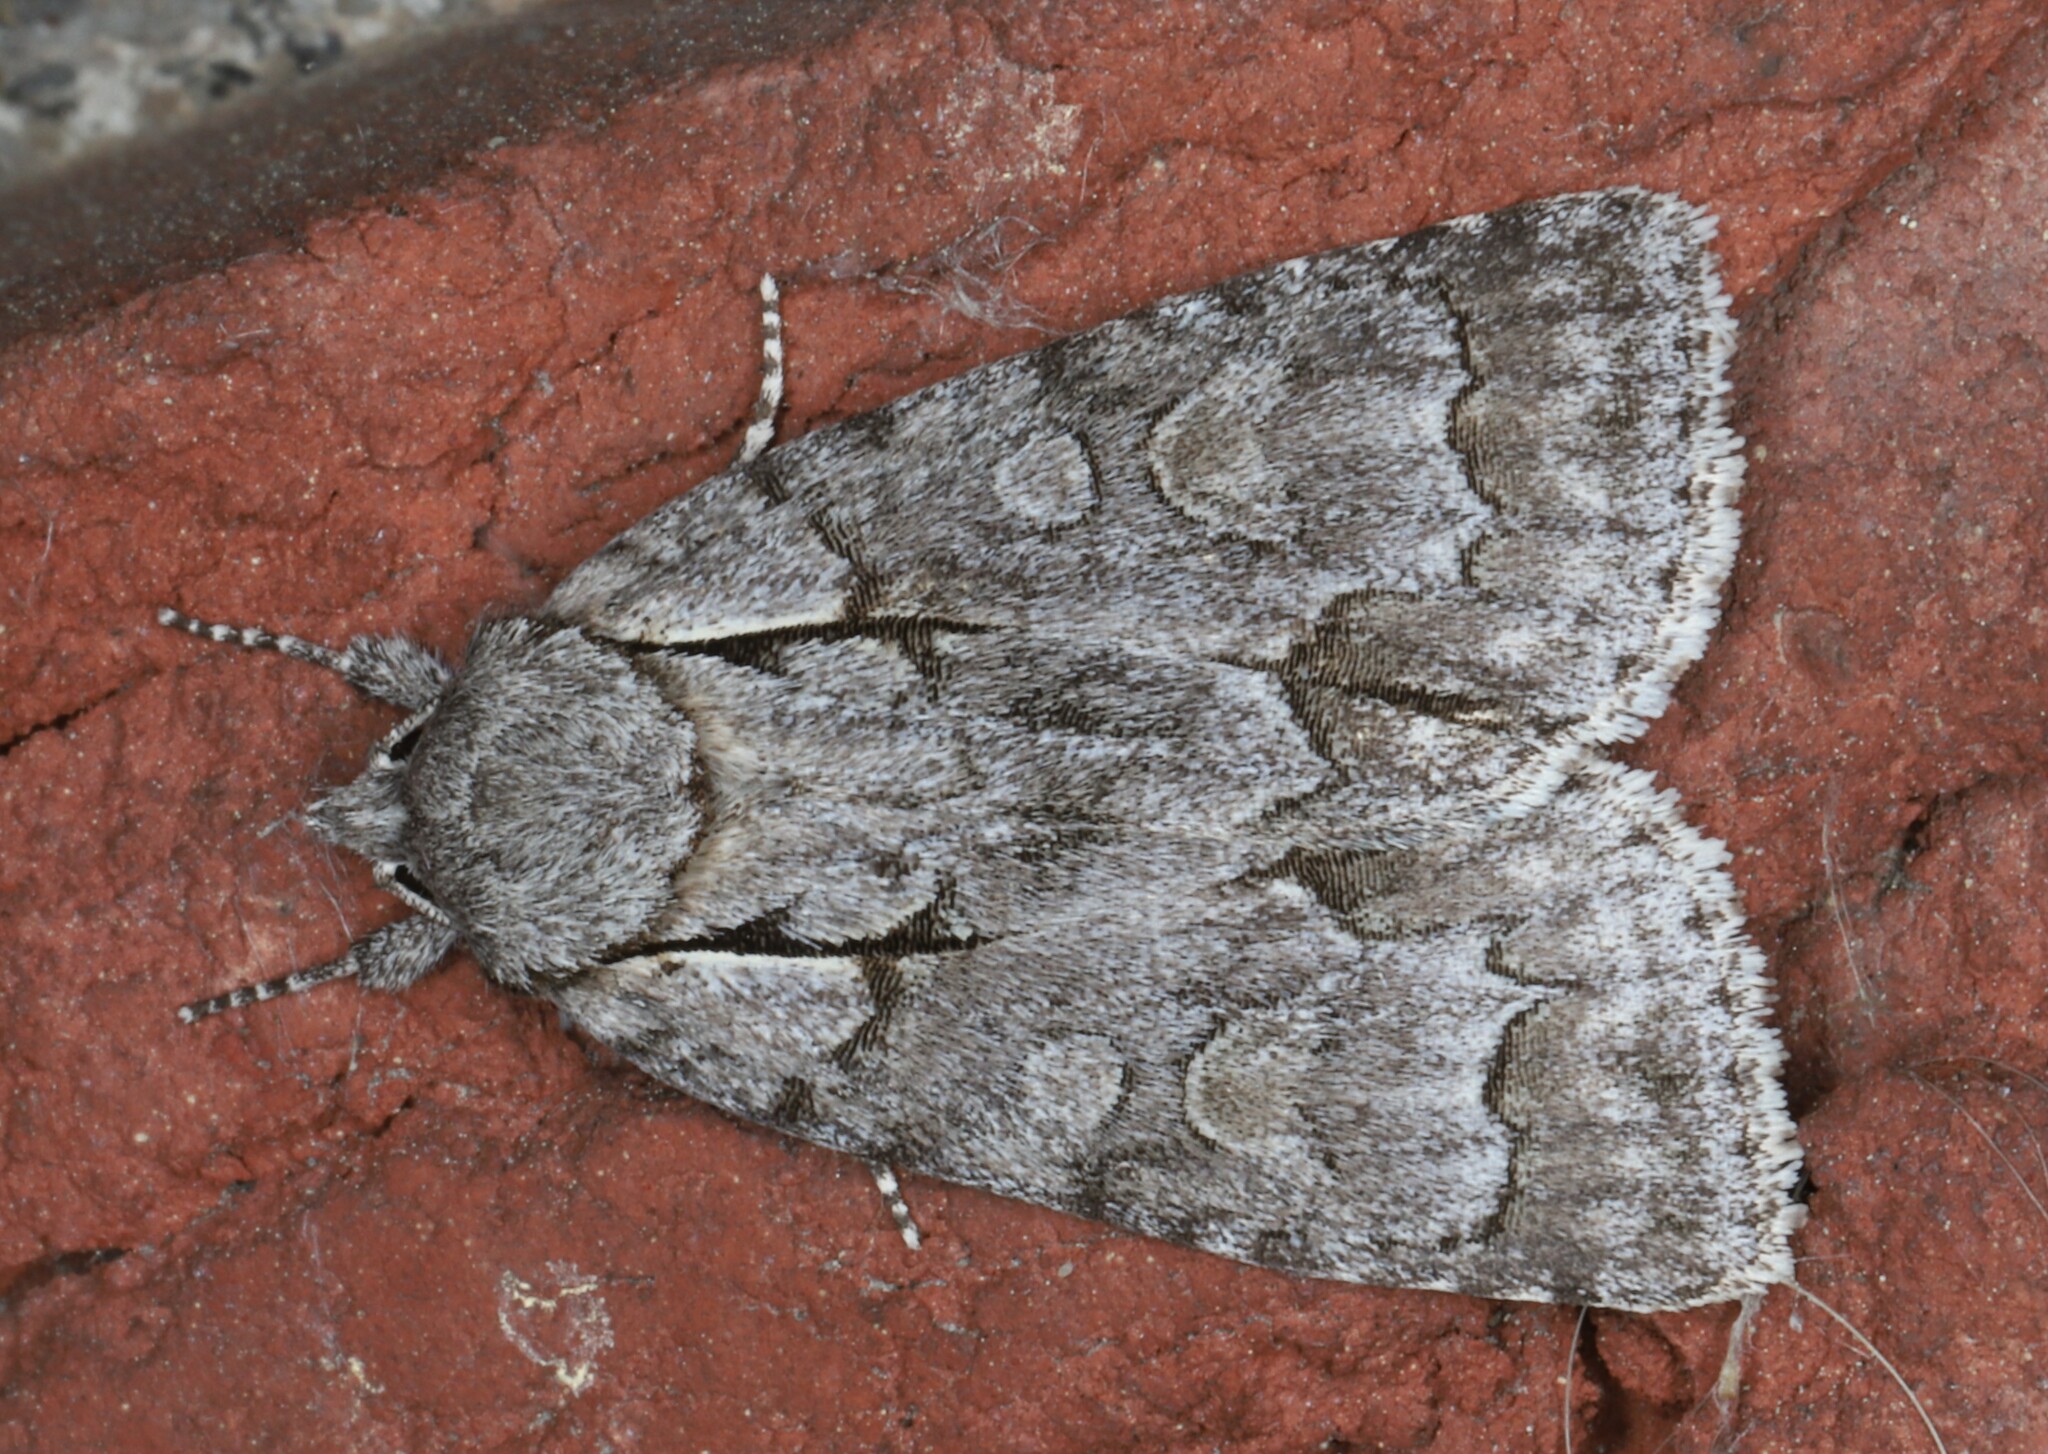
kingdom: Animalia
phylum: Arthropoda
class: Insecta
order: Lepidoptera
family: Noctuidae
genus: Acronicta
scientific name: Acronicta grisea
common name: Gray dagger
